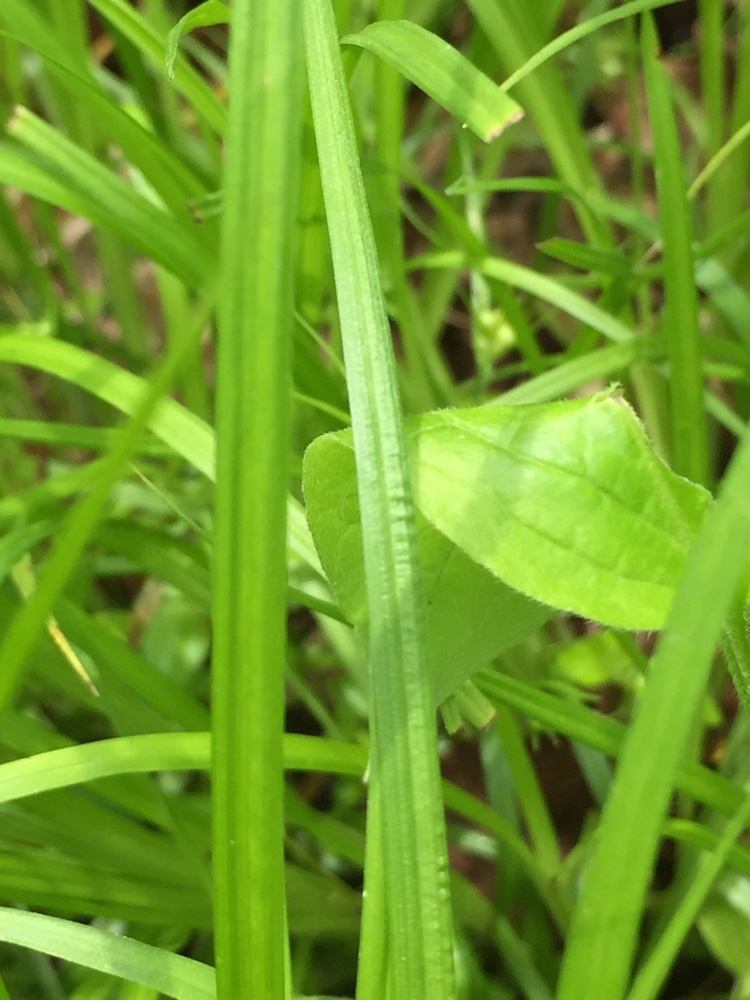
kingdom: Plantae
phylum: Tracheophyta
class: Liliopsida
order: Poales
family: Cyperaceae
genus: Carex
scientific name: Carex jamesii
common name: Grass sedge
